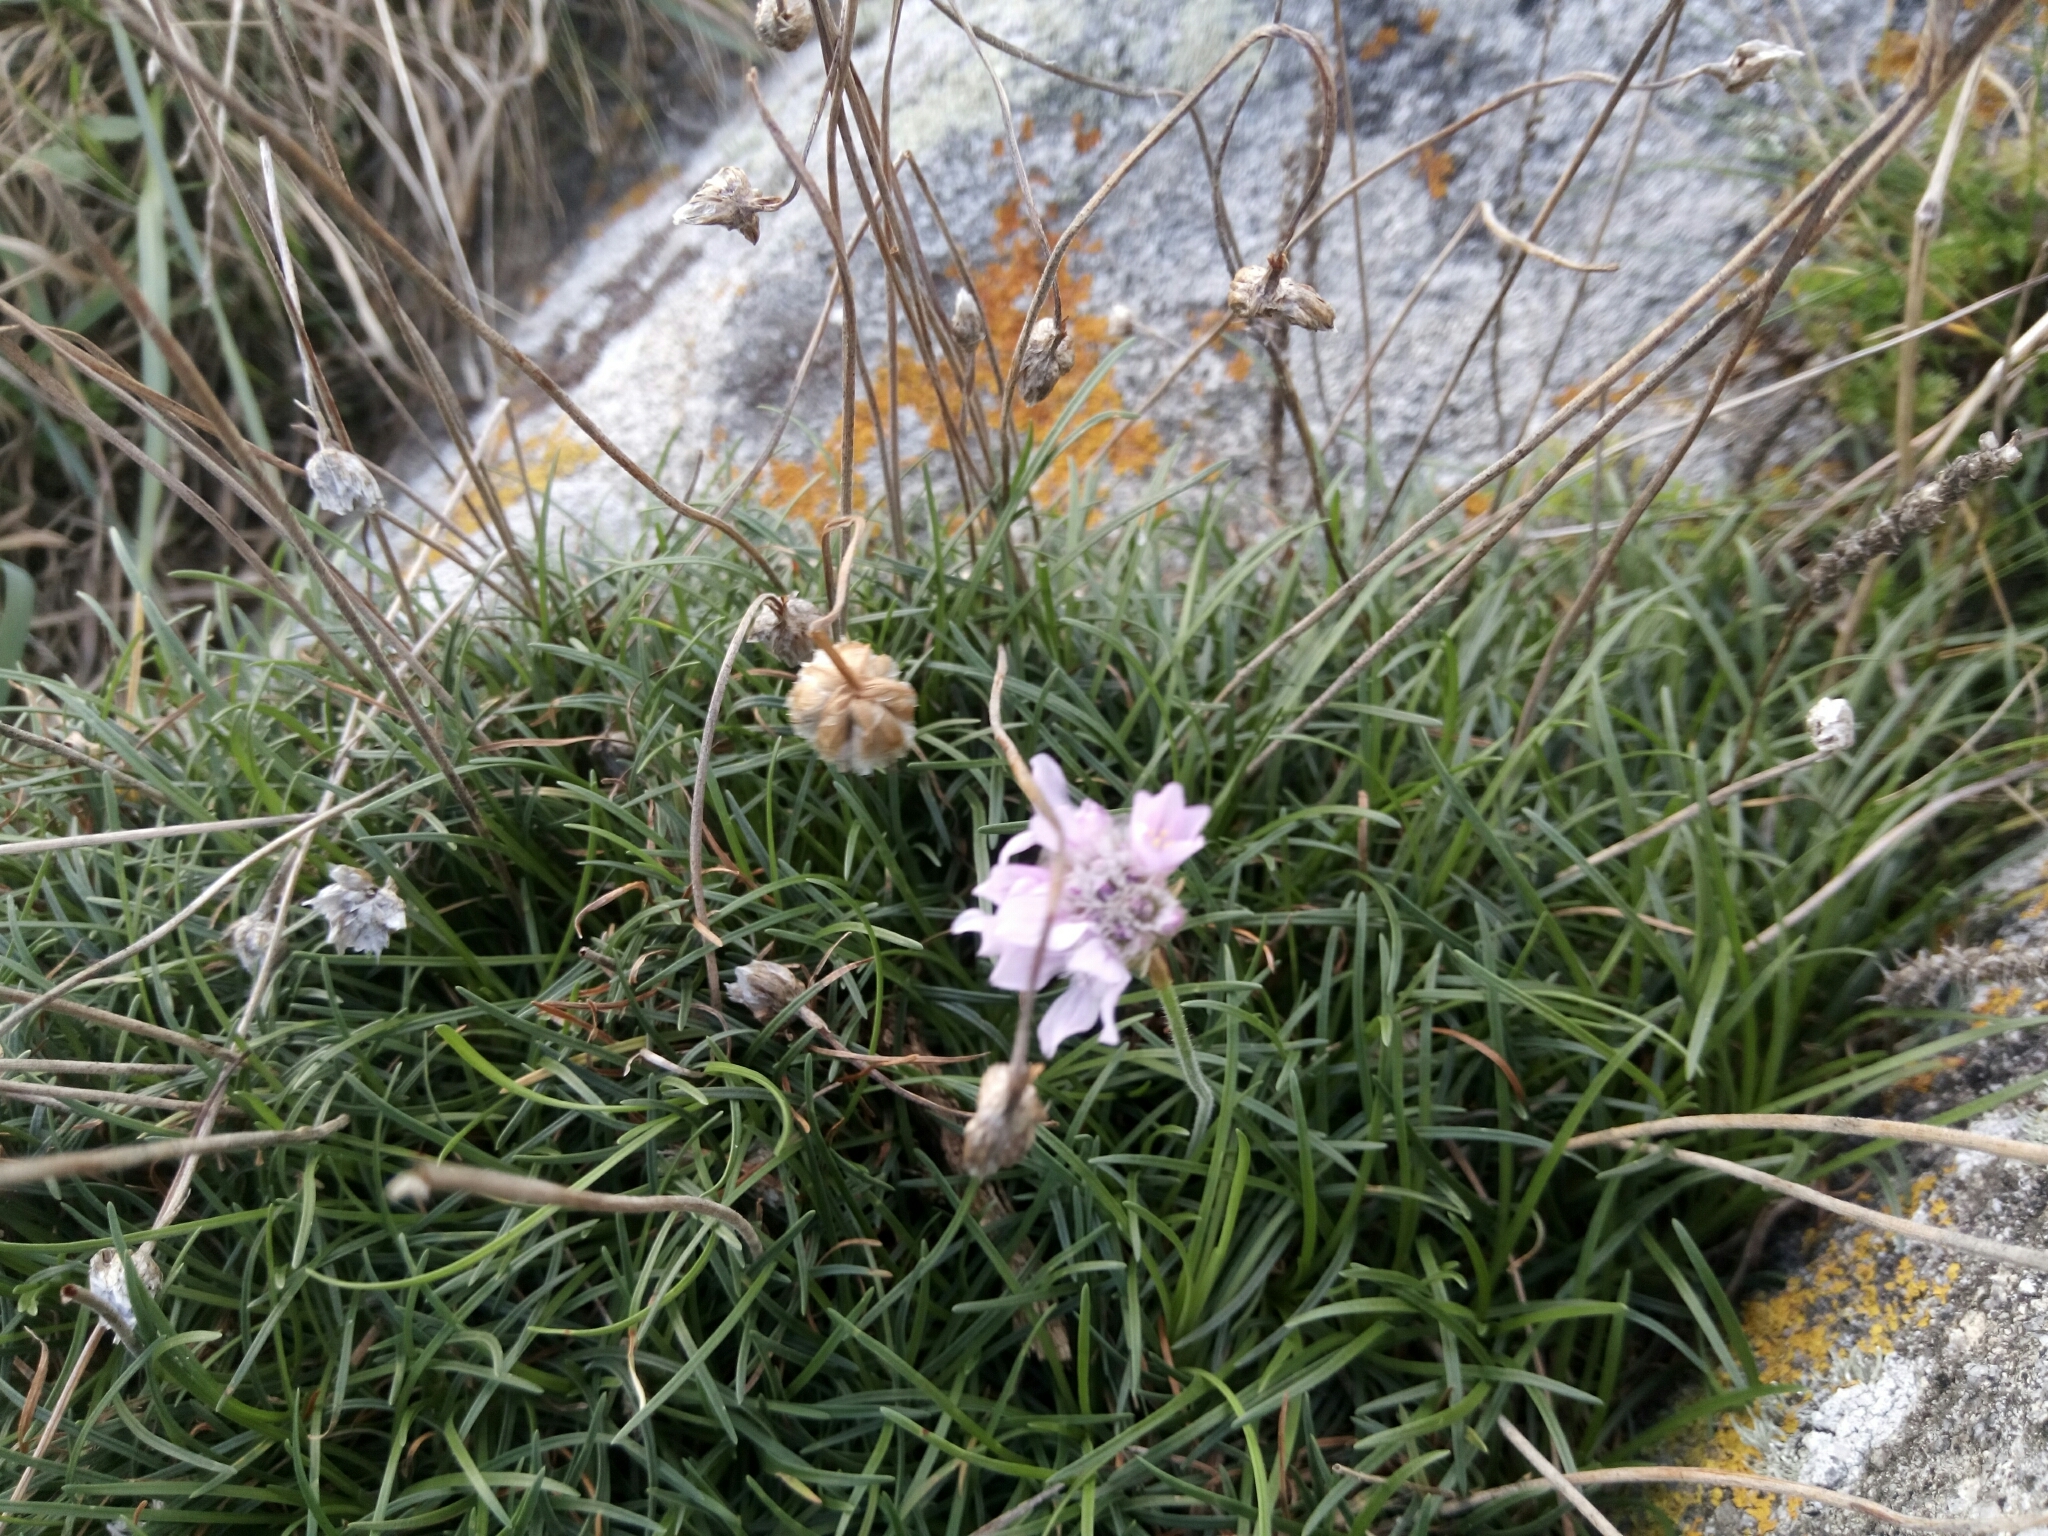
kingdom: Plantae
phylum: Tracheophyta
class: Magnoliopsida
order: Caryophyllales
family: Plumbaginaceae
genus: Armeria
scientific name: Armeria maritima
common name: Thrift
